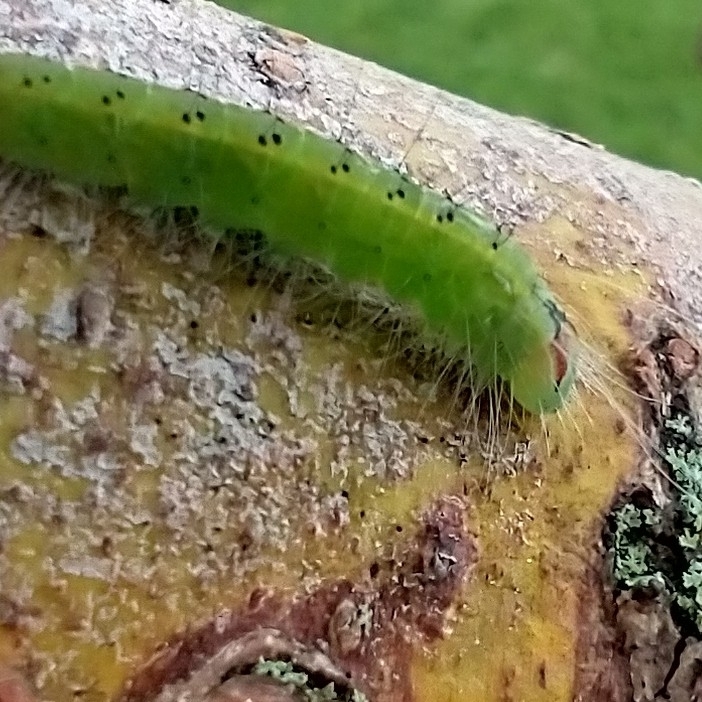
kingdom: Animalia
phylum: Arthropoda
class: Insecta
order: Lepidoptera
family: Noctuidae
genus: Acronicta
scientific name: Acronicta connecta
